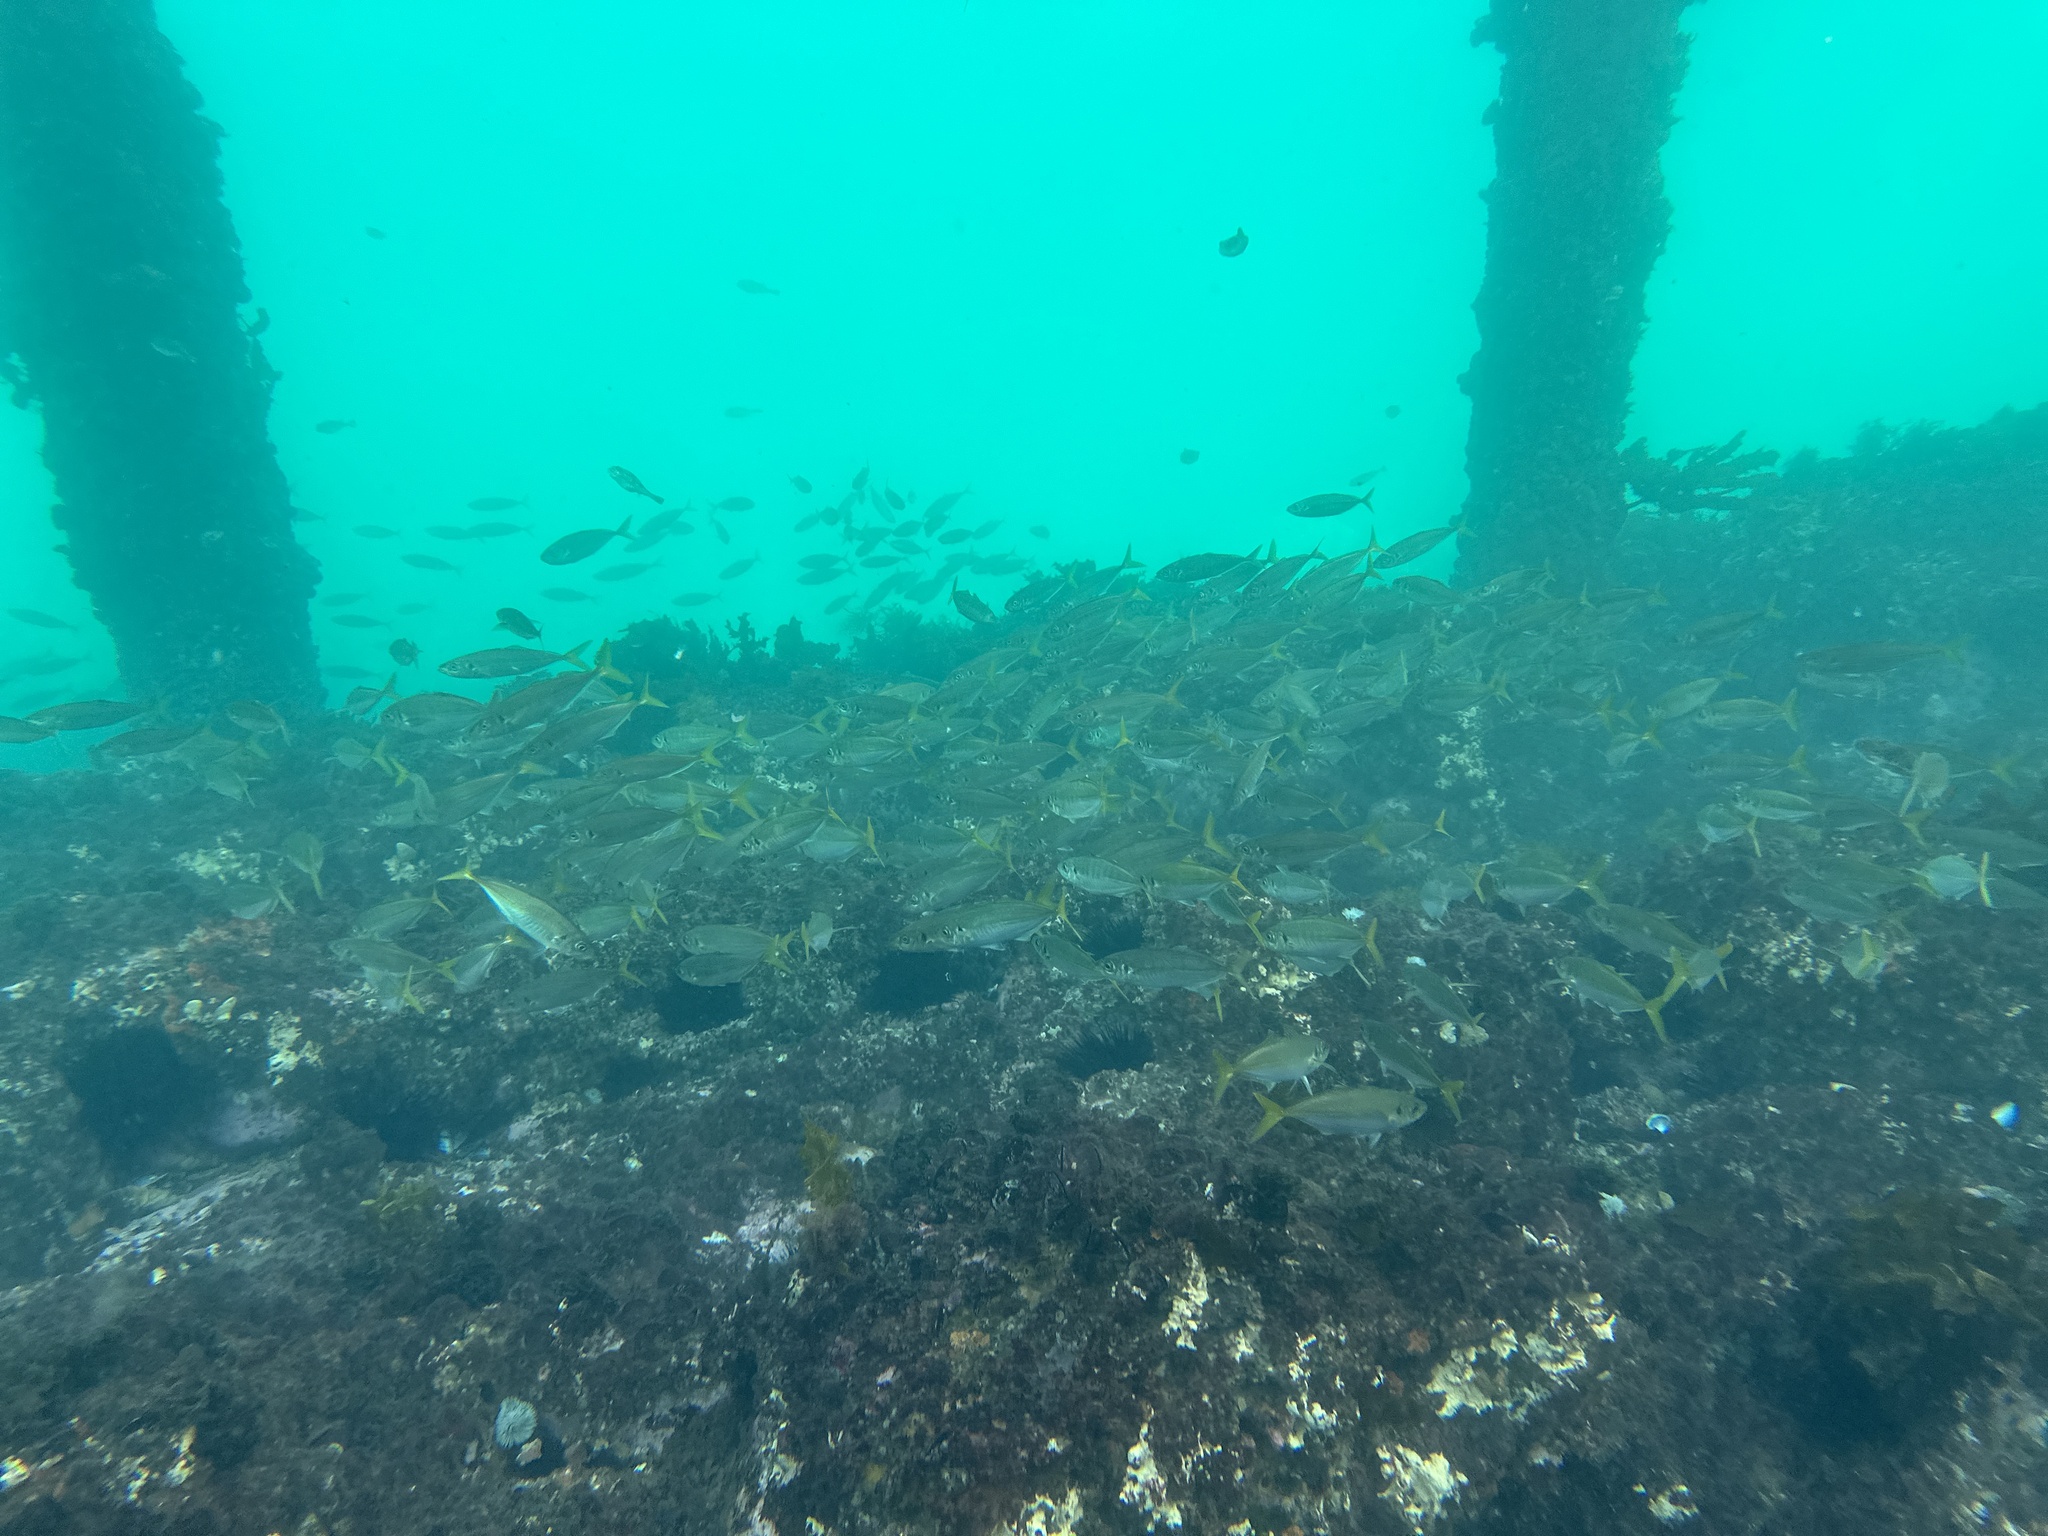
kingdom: Animalia
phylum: Chordata
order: Perciformes
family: Carangidae
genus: Trachurus
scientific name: Trachurus novaezelandiae
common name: Yellowtail horse mackerel
